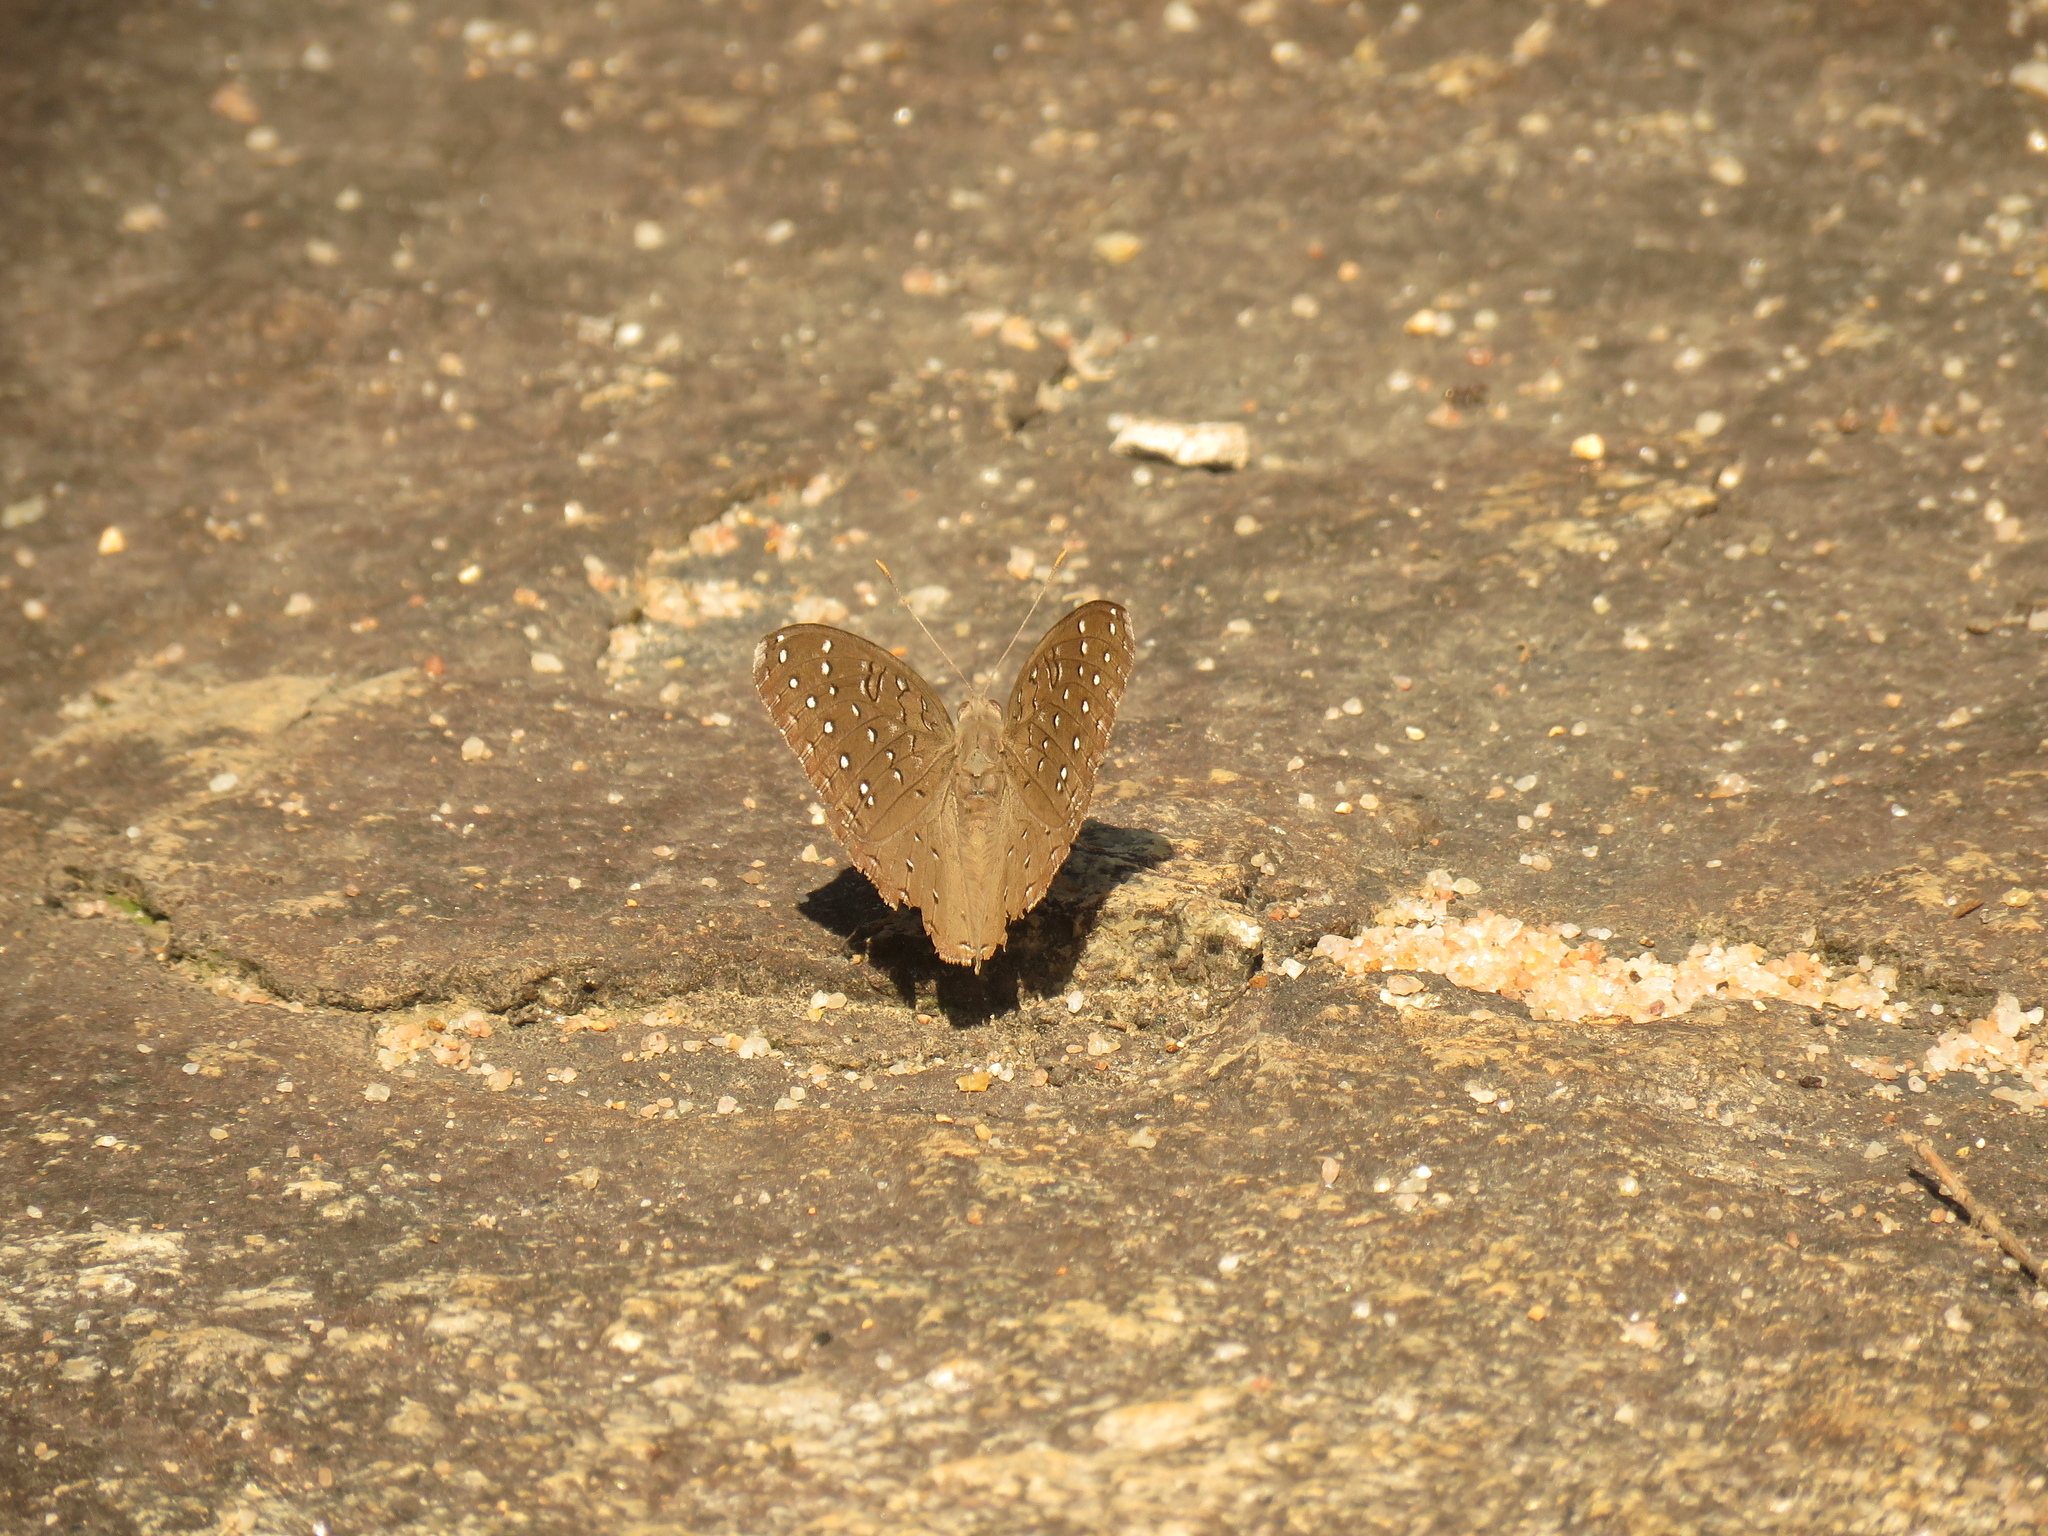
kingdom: Animalia
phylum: Arthropoda
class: Insecta
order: Lepidoptera
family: Nymphalidae
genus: Hamanumida
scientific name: Hamanumida daedalus
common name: Guinea-fowl butterfly
